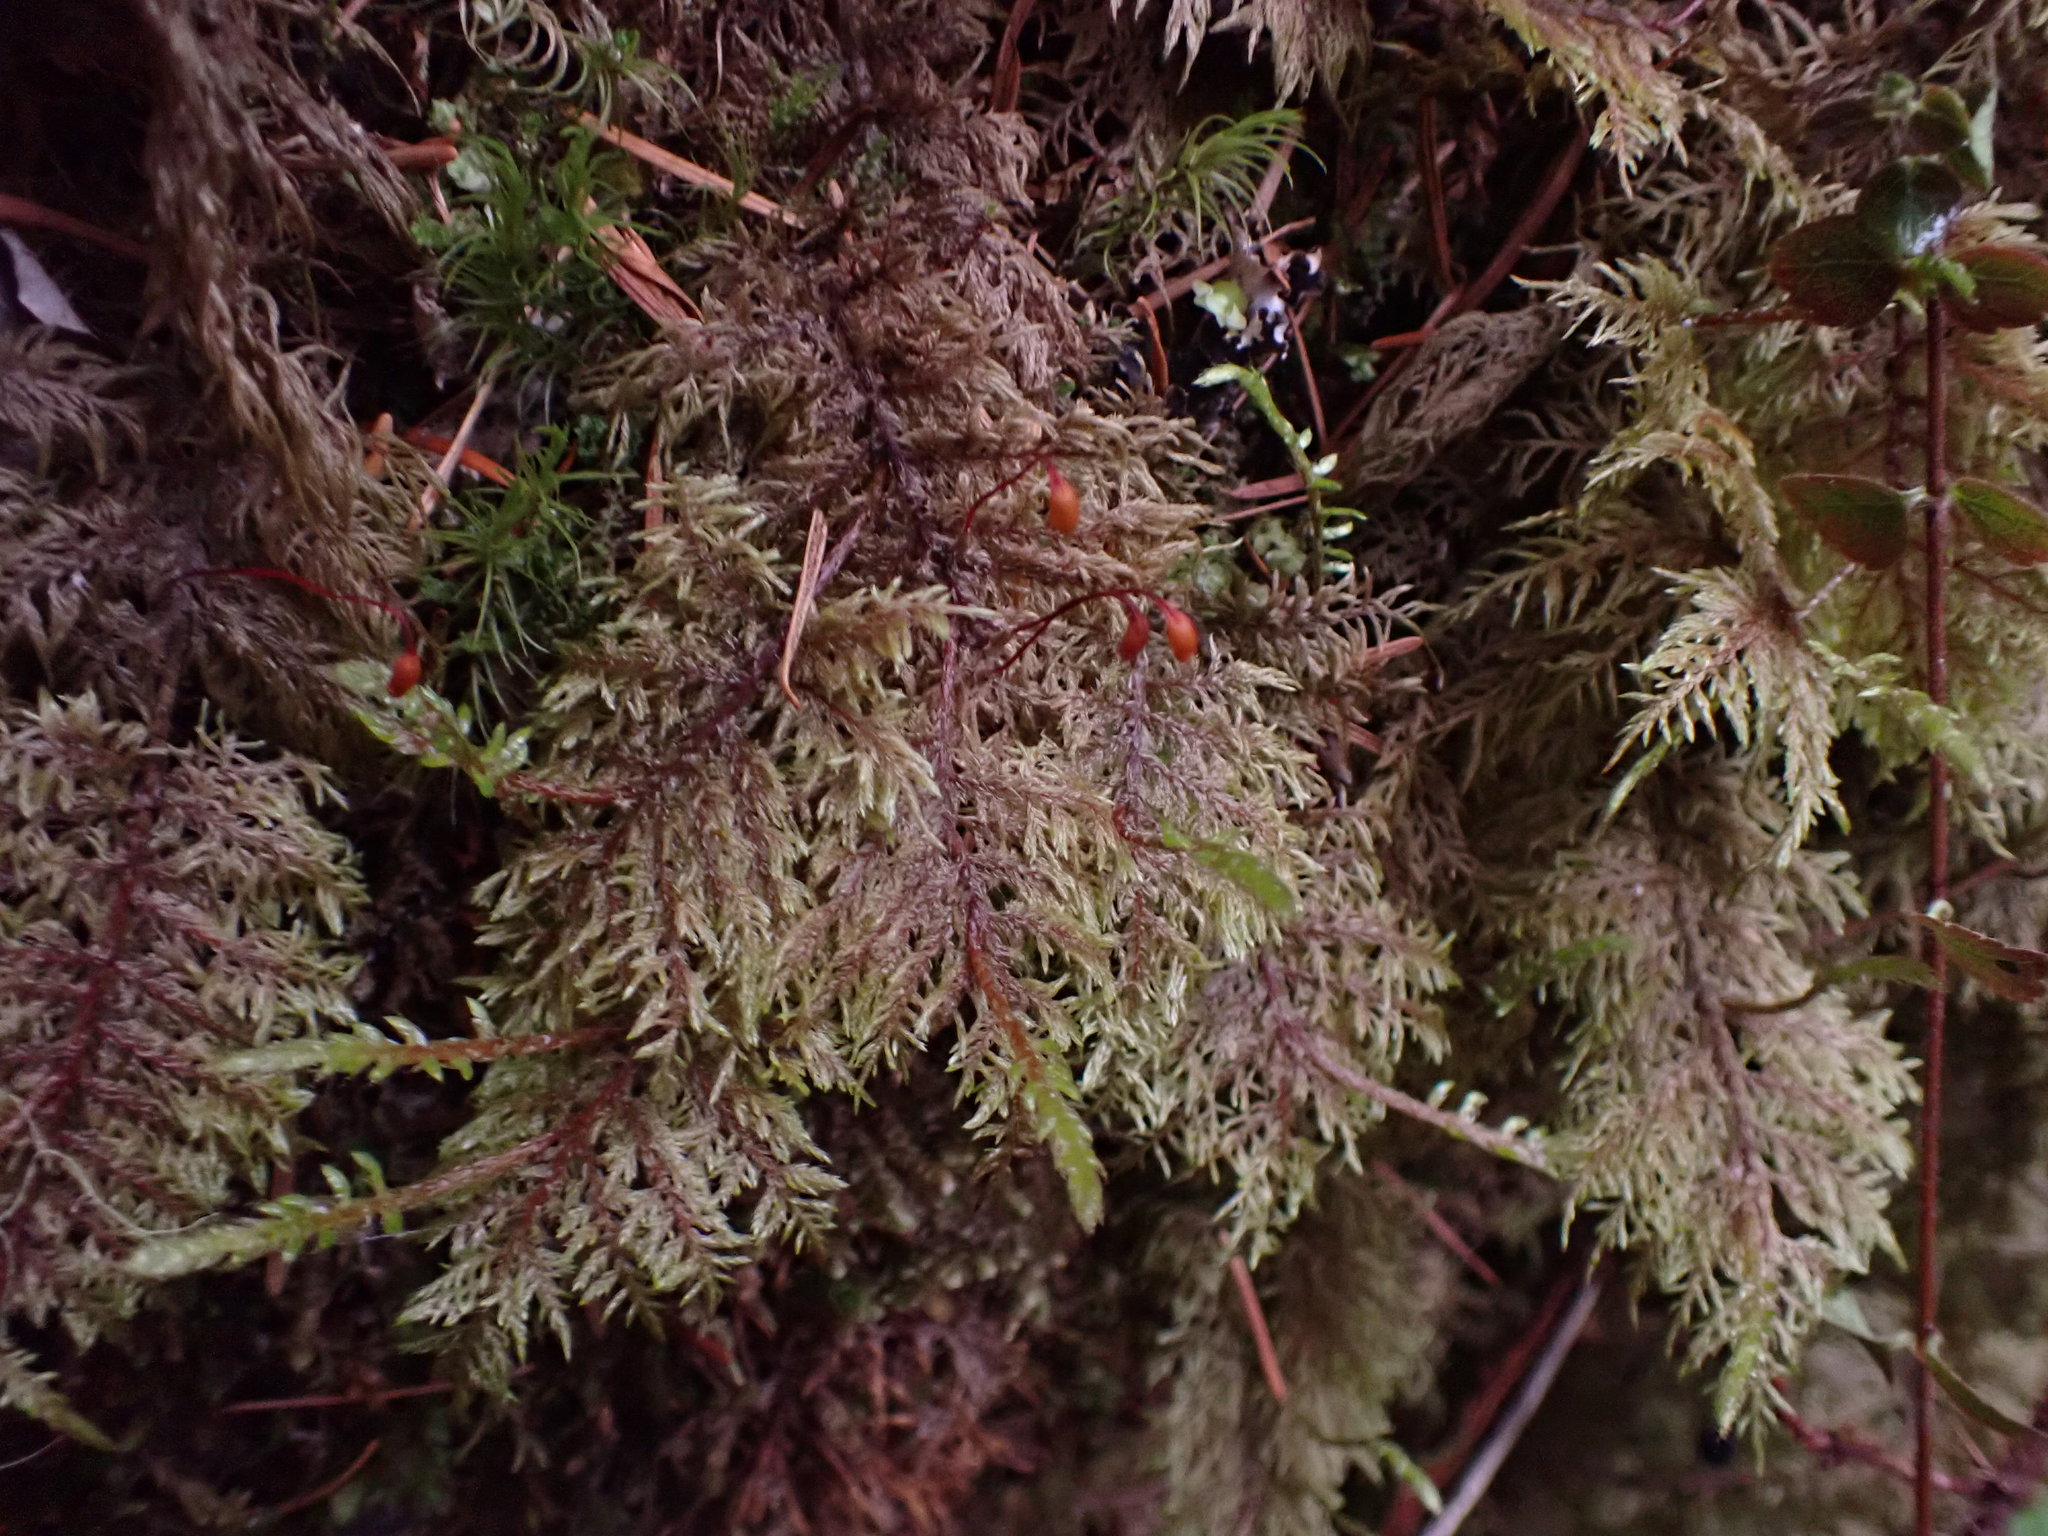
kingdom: Plantae
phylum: Bryophyta
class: Bryopsida
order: Hypnales
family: Hylocomiaceae
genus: Hylocomium
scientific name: Hylocomium splendens
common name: Stairstep moss
